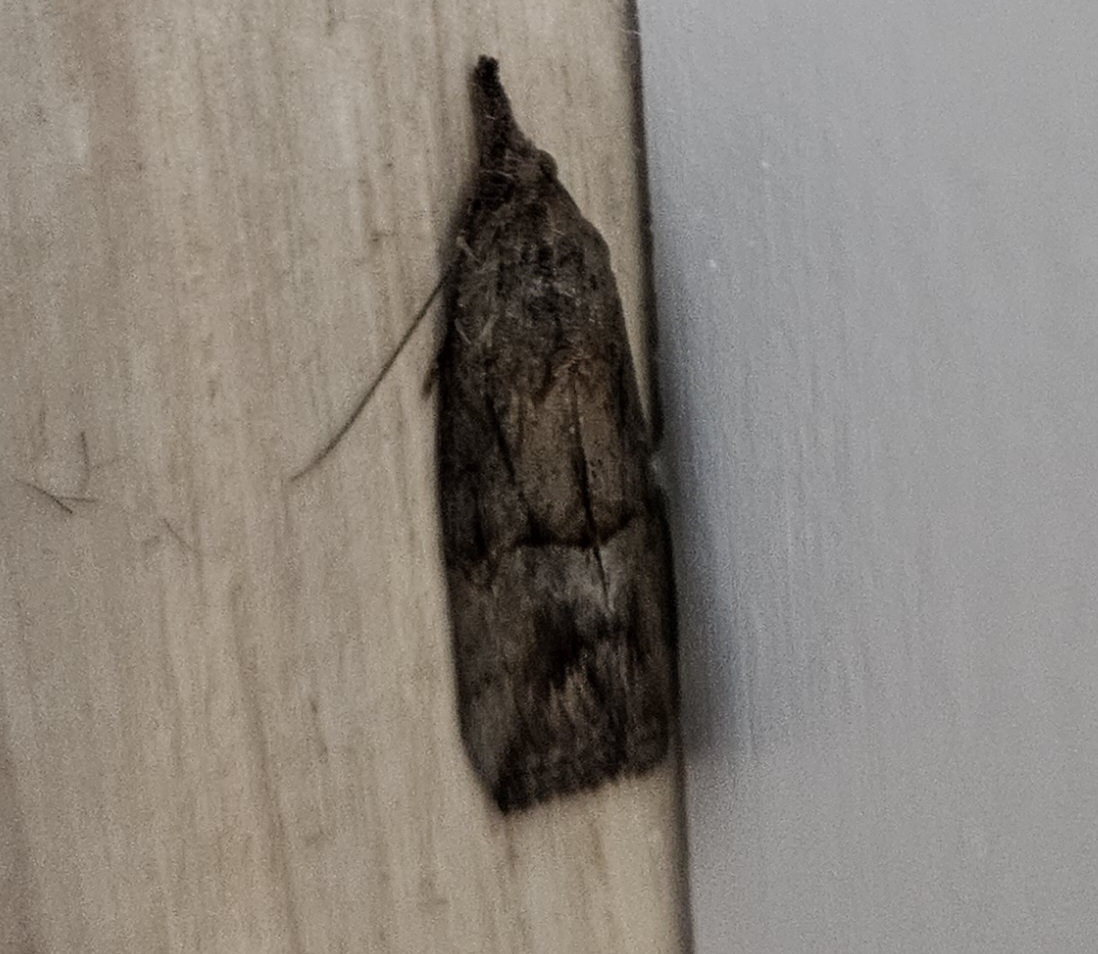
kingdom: Animalia
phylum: Arthropoda
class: Insecta
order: Lepidoptera
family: Erebidae
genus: Hypena
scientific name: Hypena scabra
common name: Green cloverworm
